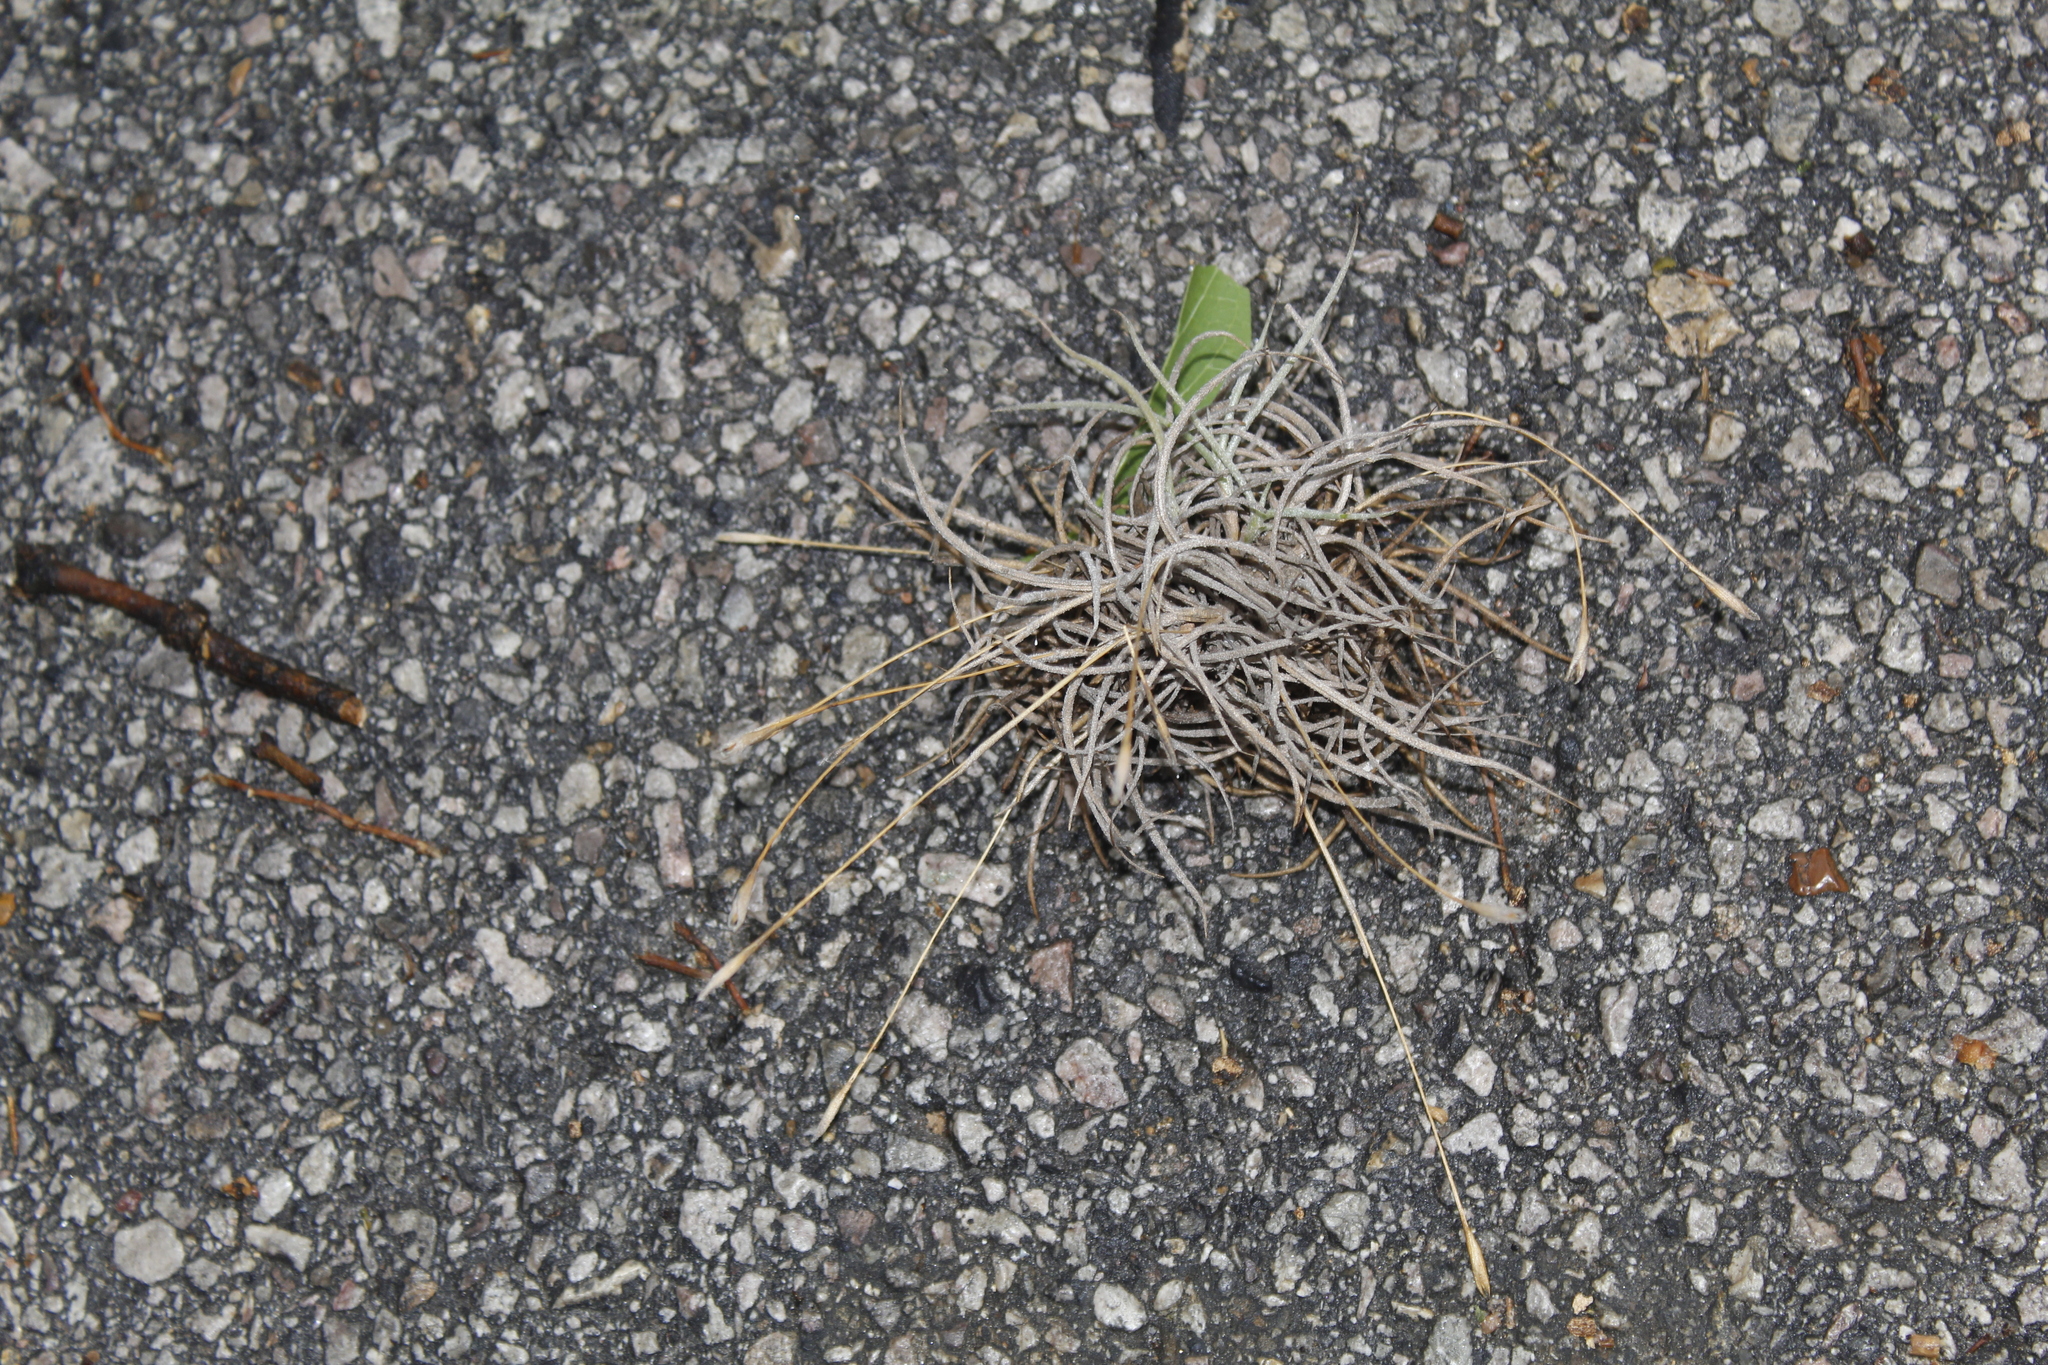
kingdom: Plantae
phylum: Tracheophyta
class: Liliopsida
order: Poales
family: Bromeliaceae
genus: Tillandsia
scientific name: Tillandsia recurvata
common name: Small ballmoss
